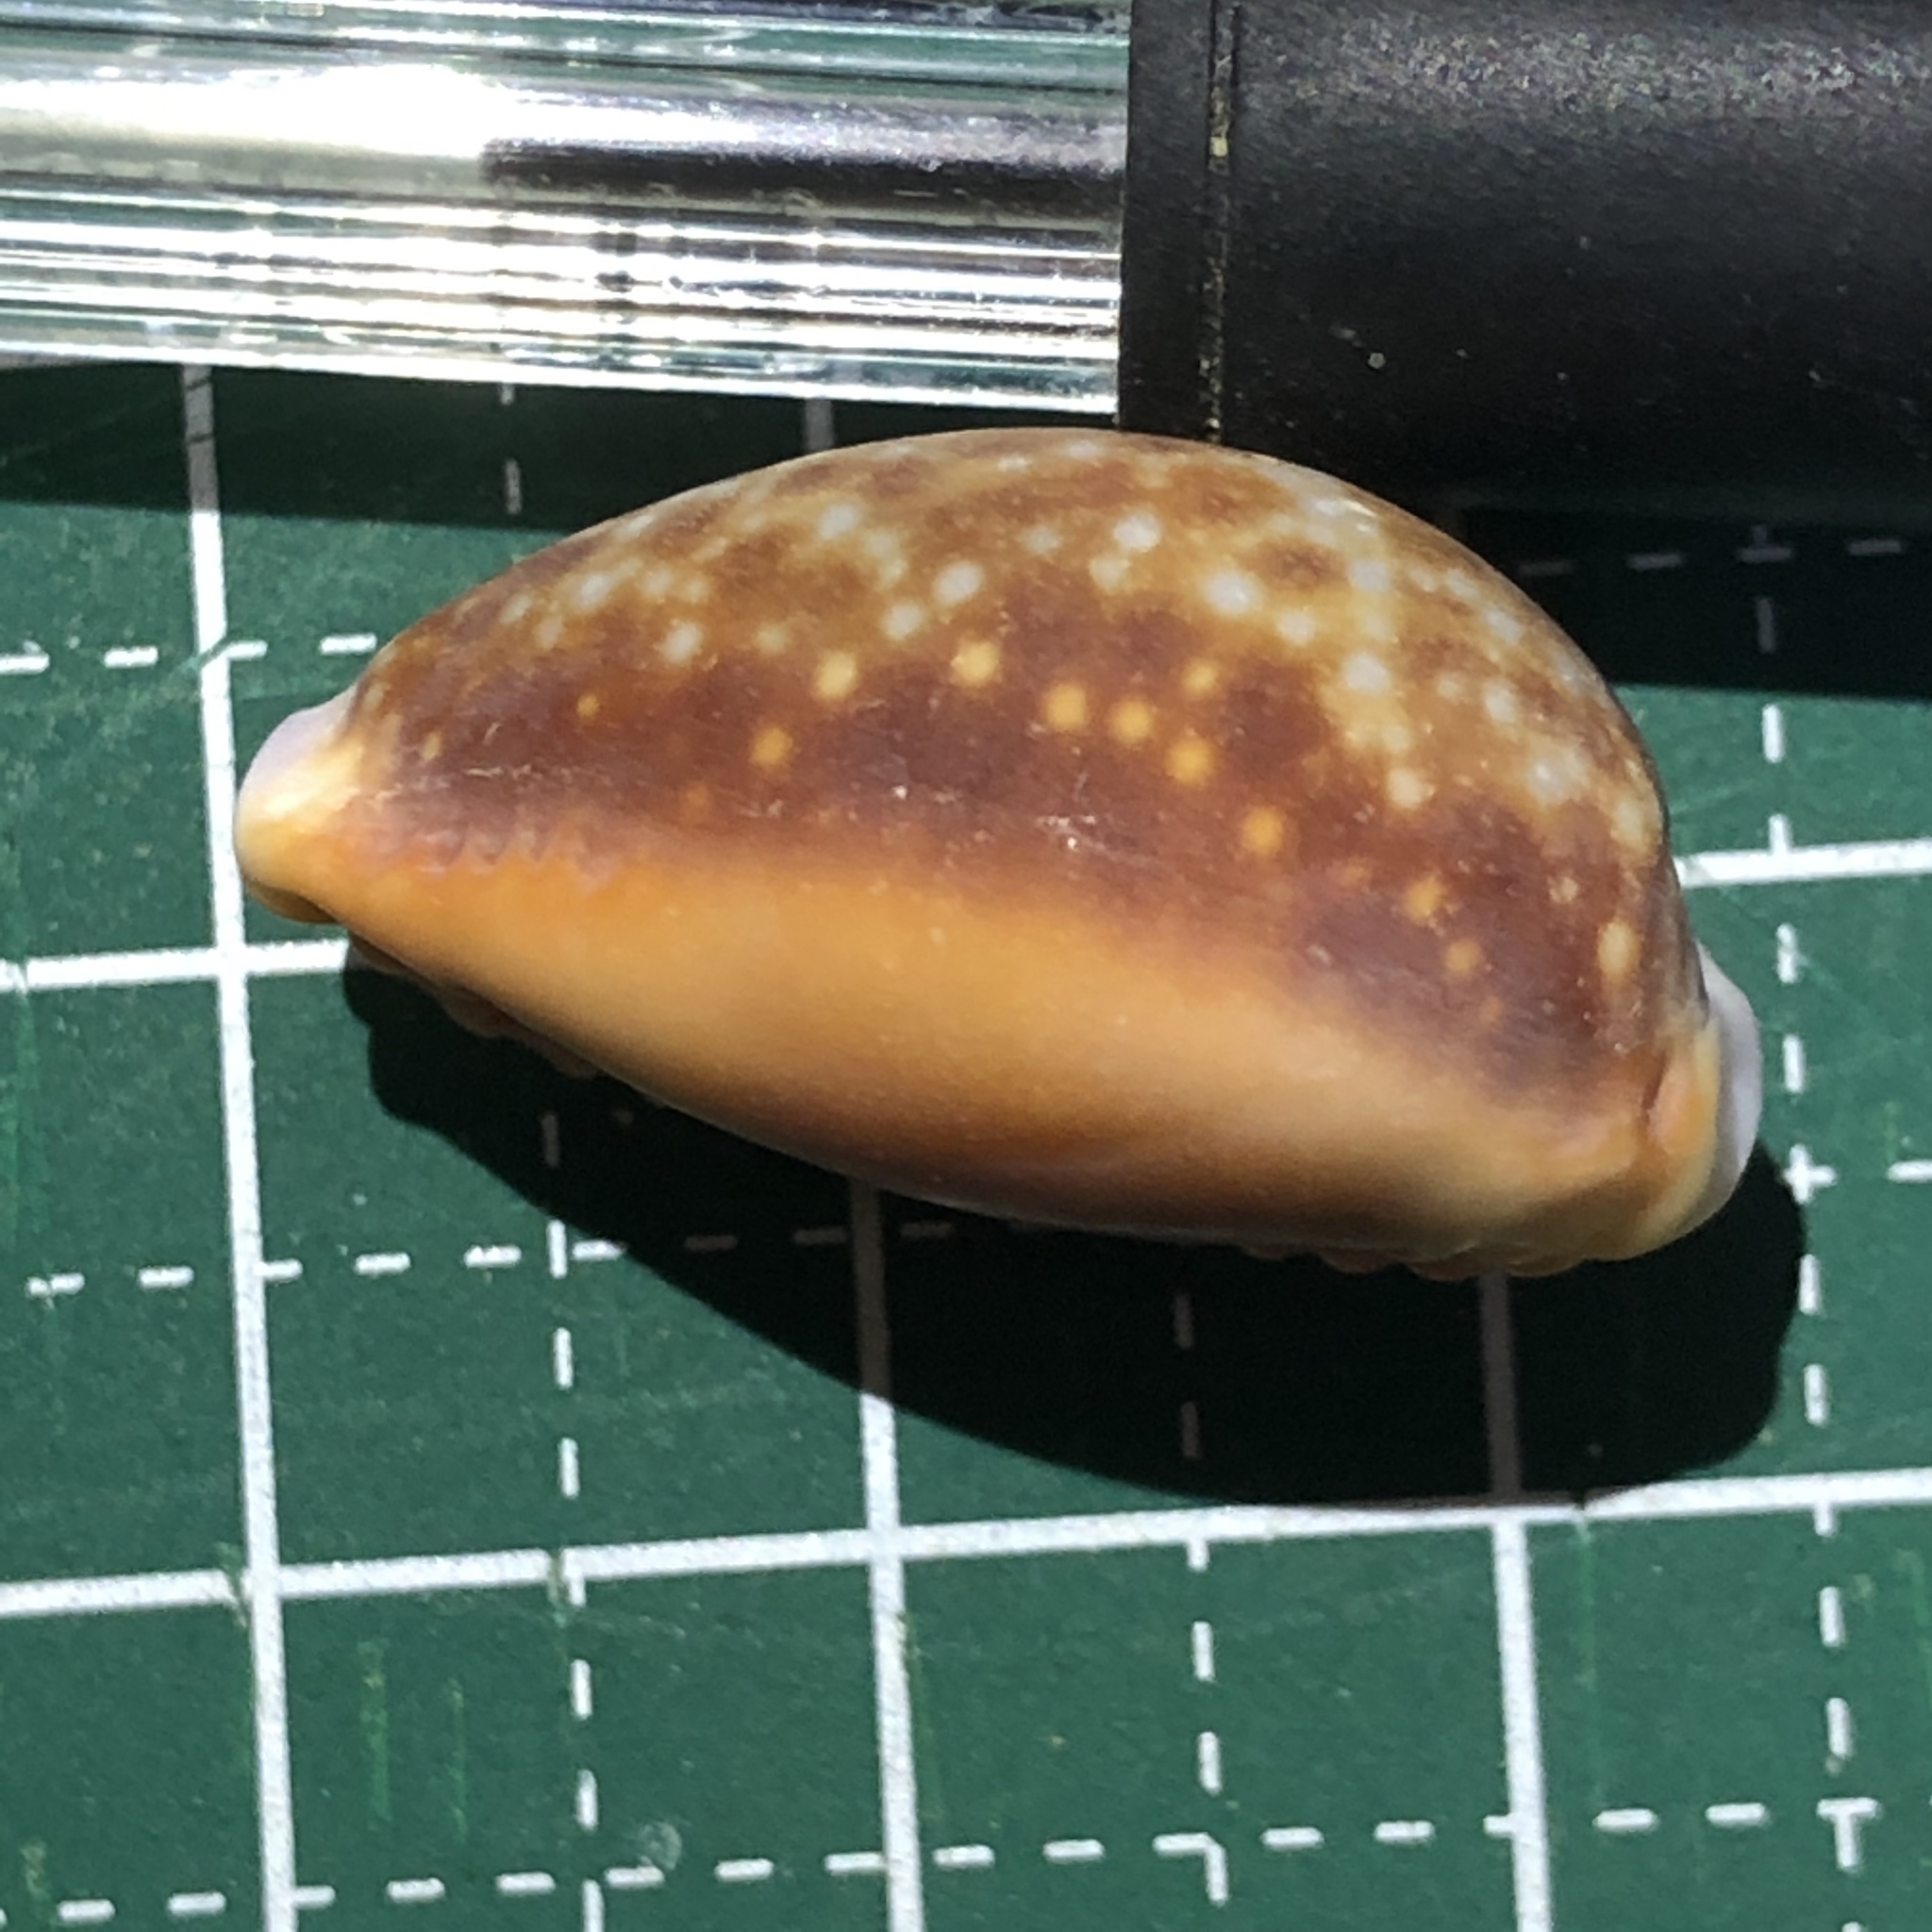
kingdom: Animalia
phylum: Mollusca
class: Gastropoda
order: Littorinimorpha
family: Cypraeidae
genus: Naria
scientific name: Naria helvola
